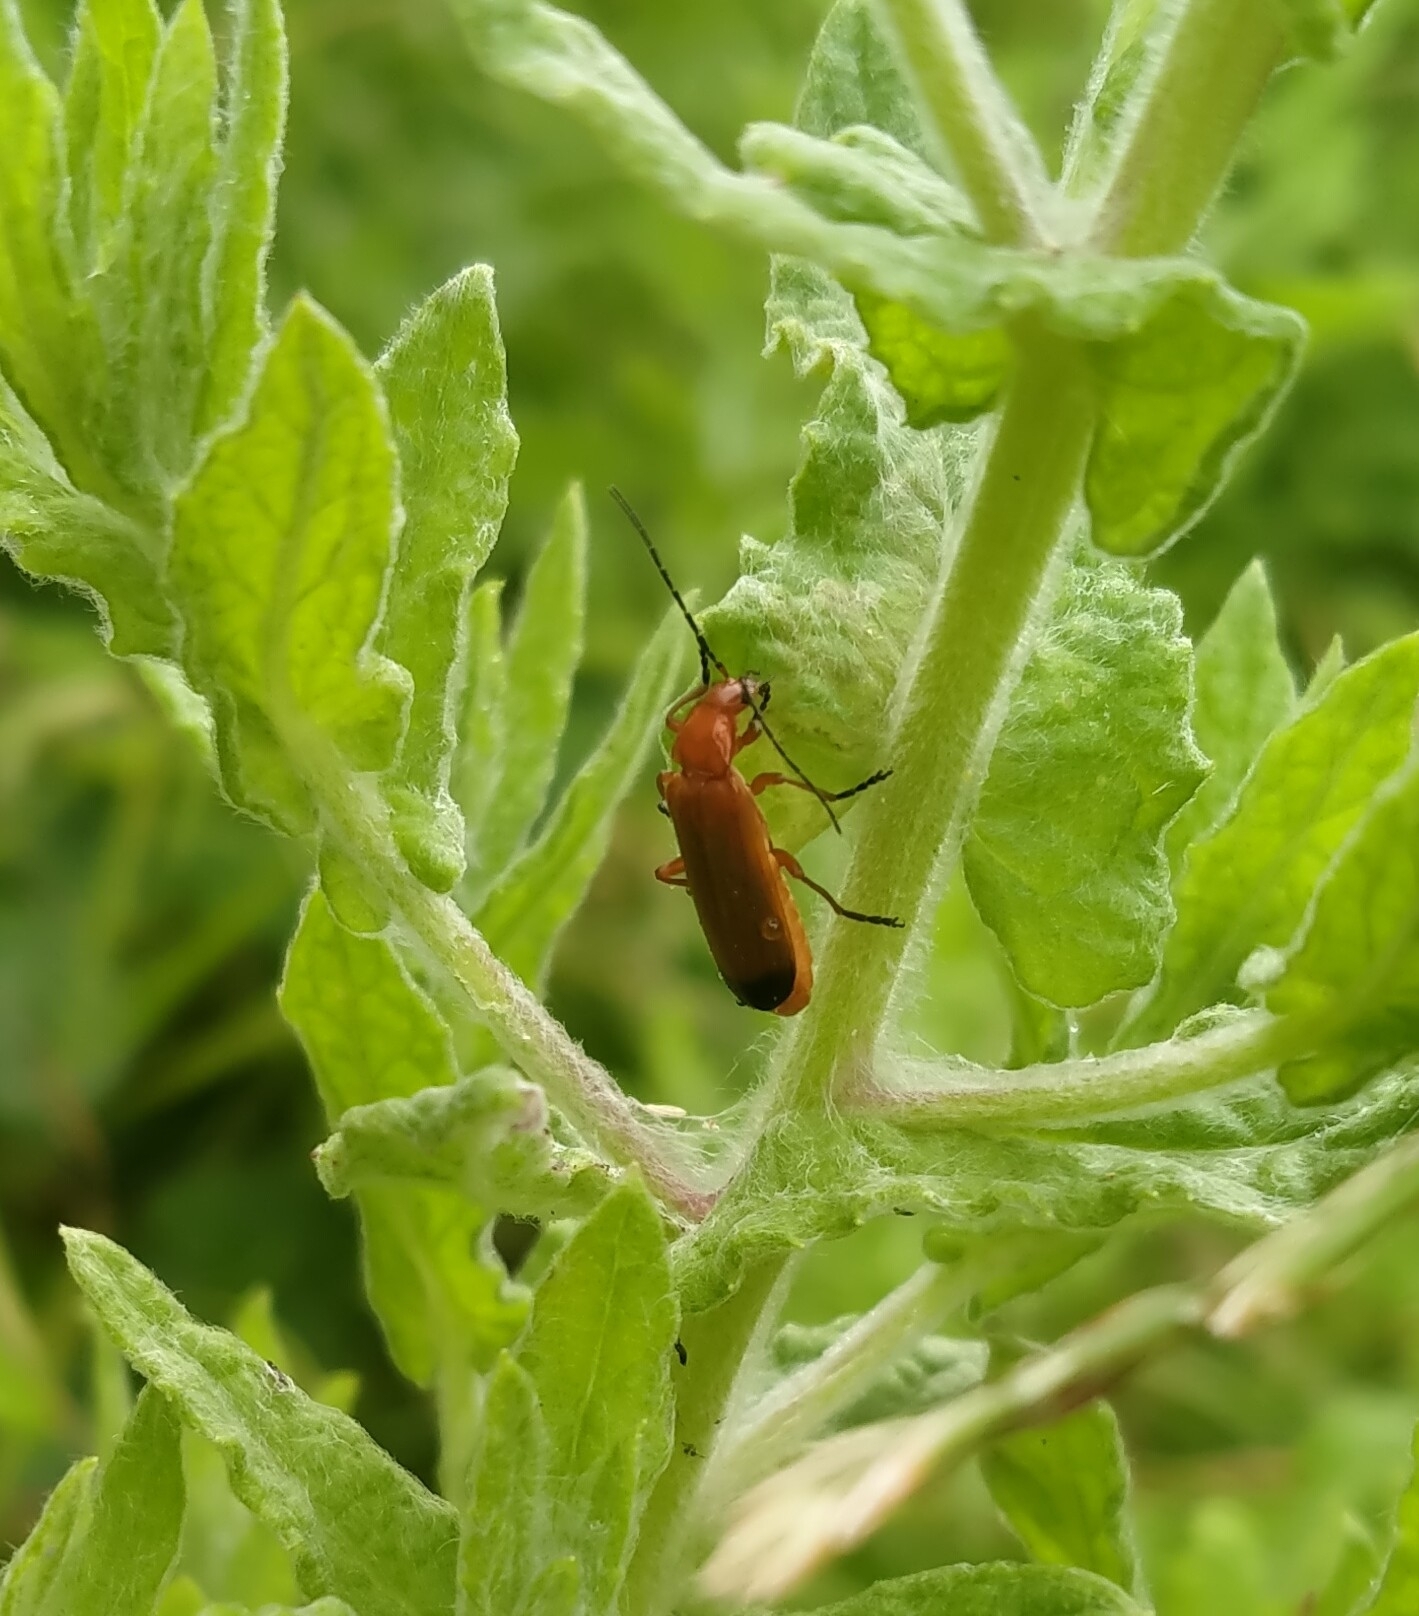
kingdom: Animalia
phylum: Arthropoda
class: Insecta
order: Coleoptera
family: Cantharidae
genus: Rhagonycha
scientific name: Rhagonycha fulva
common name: Common red soldier beetle
